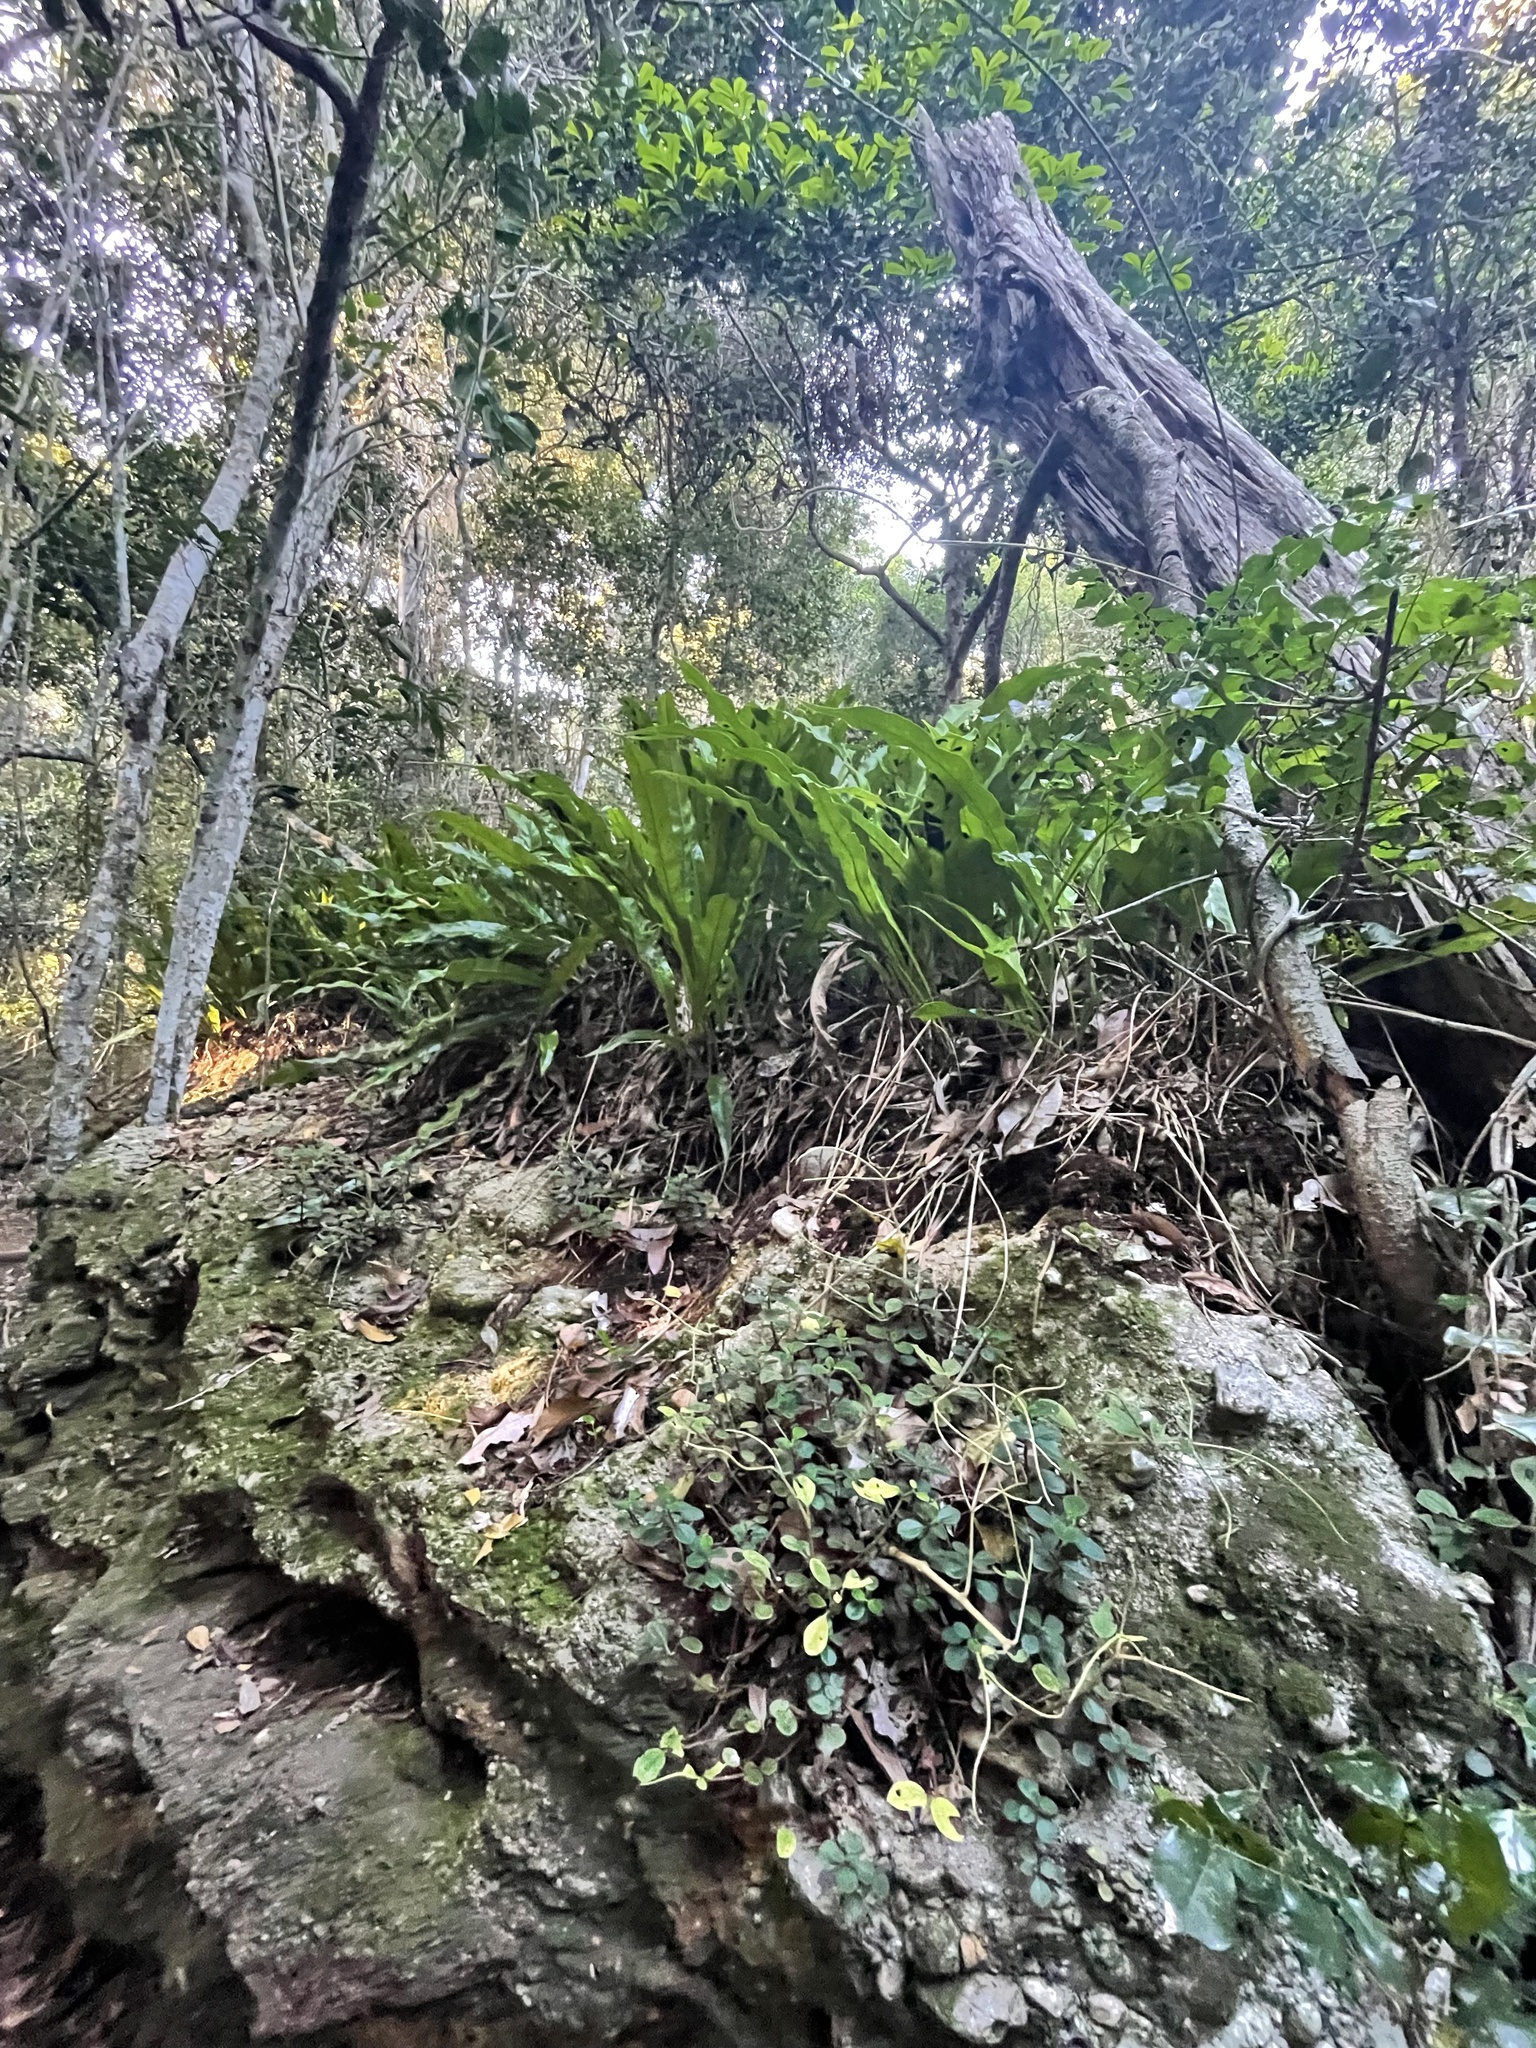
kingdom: Plantae
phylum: Tracheophyta
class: Polypodiopsida
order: Polypodiales
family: Polypodiaceae
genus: Microsorum
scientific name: Microsorum punctatum
